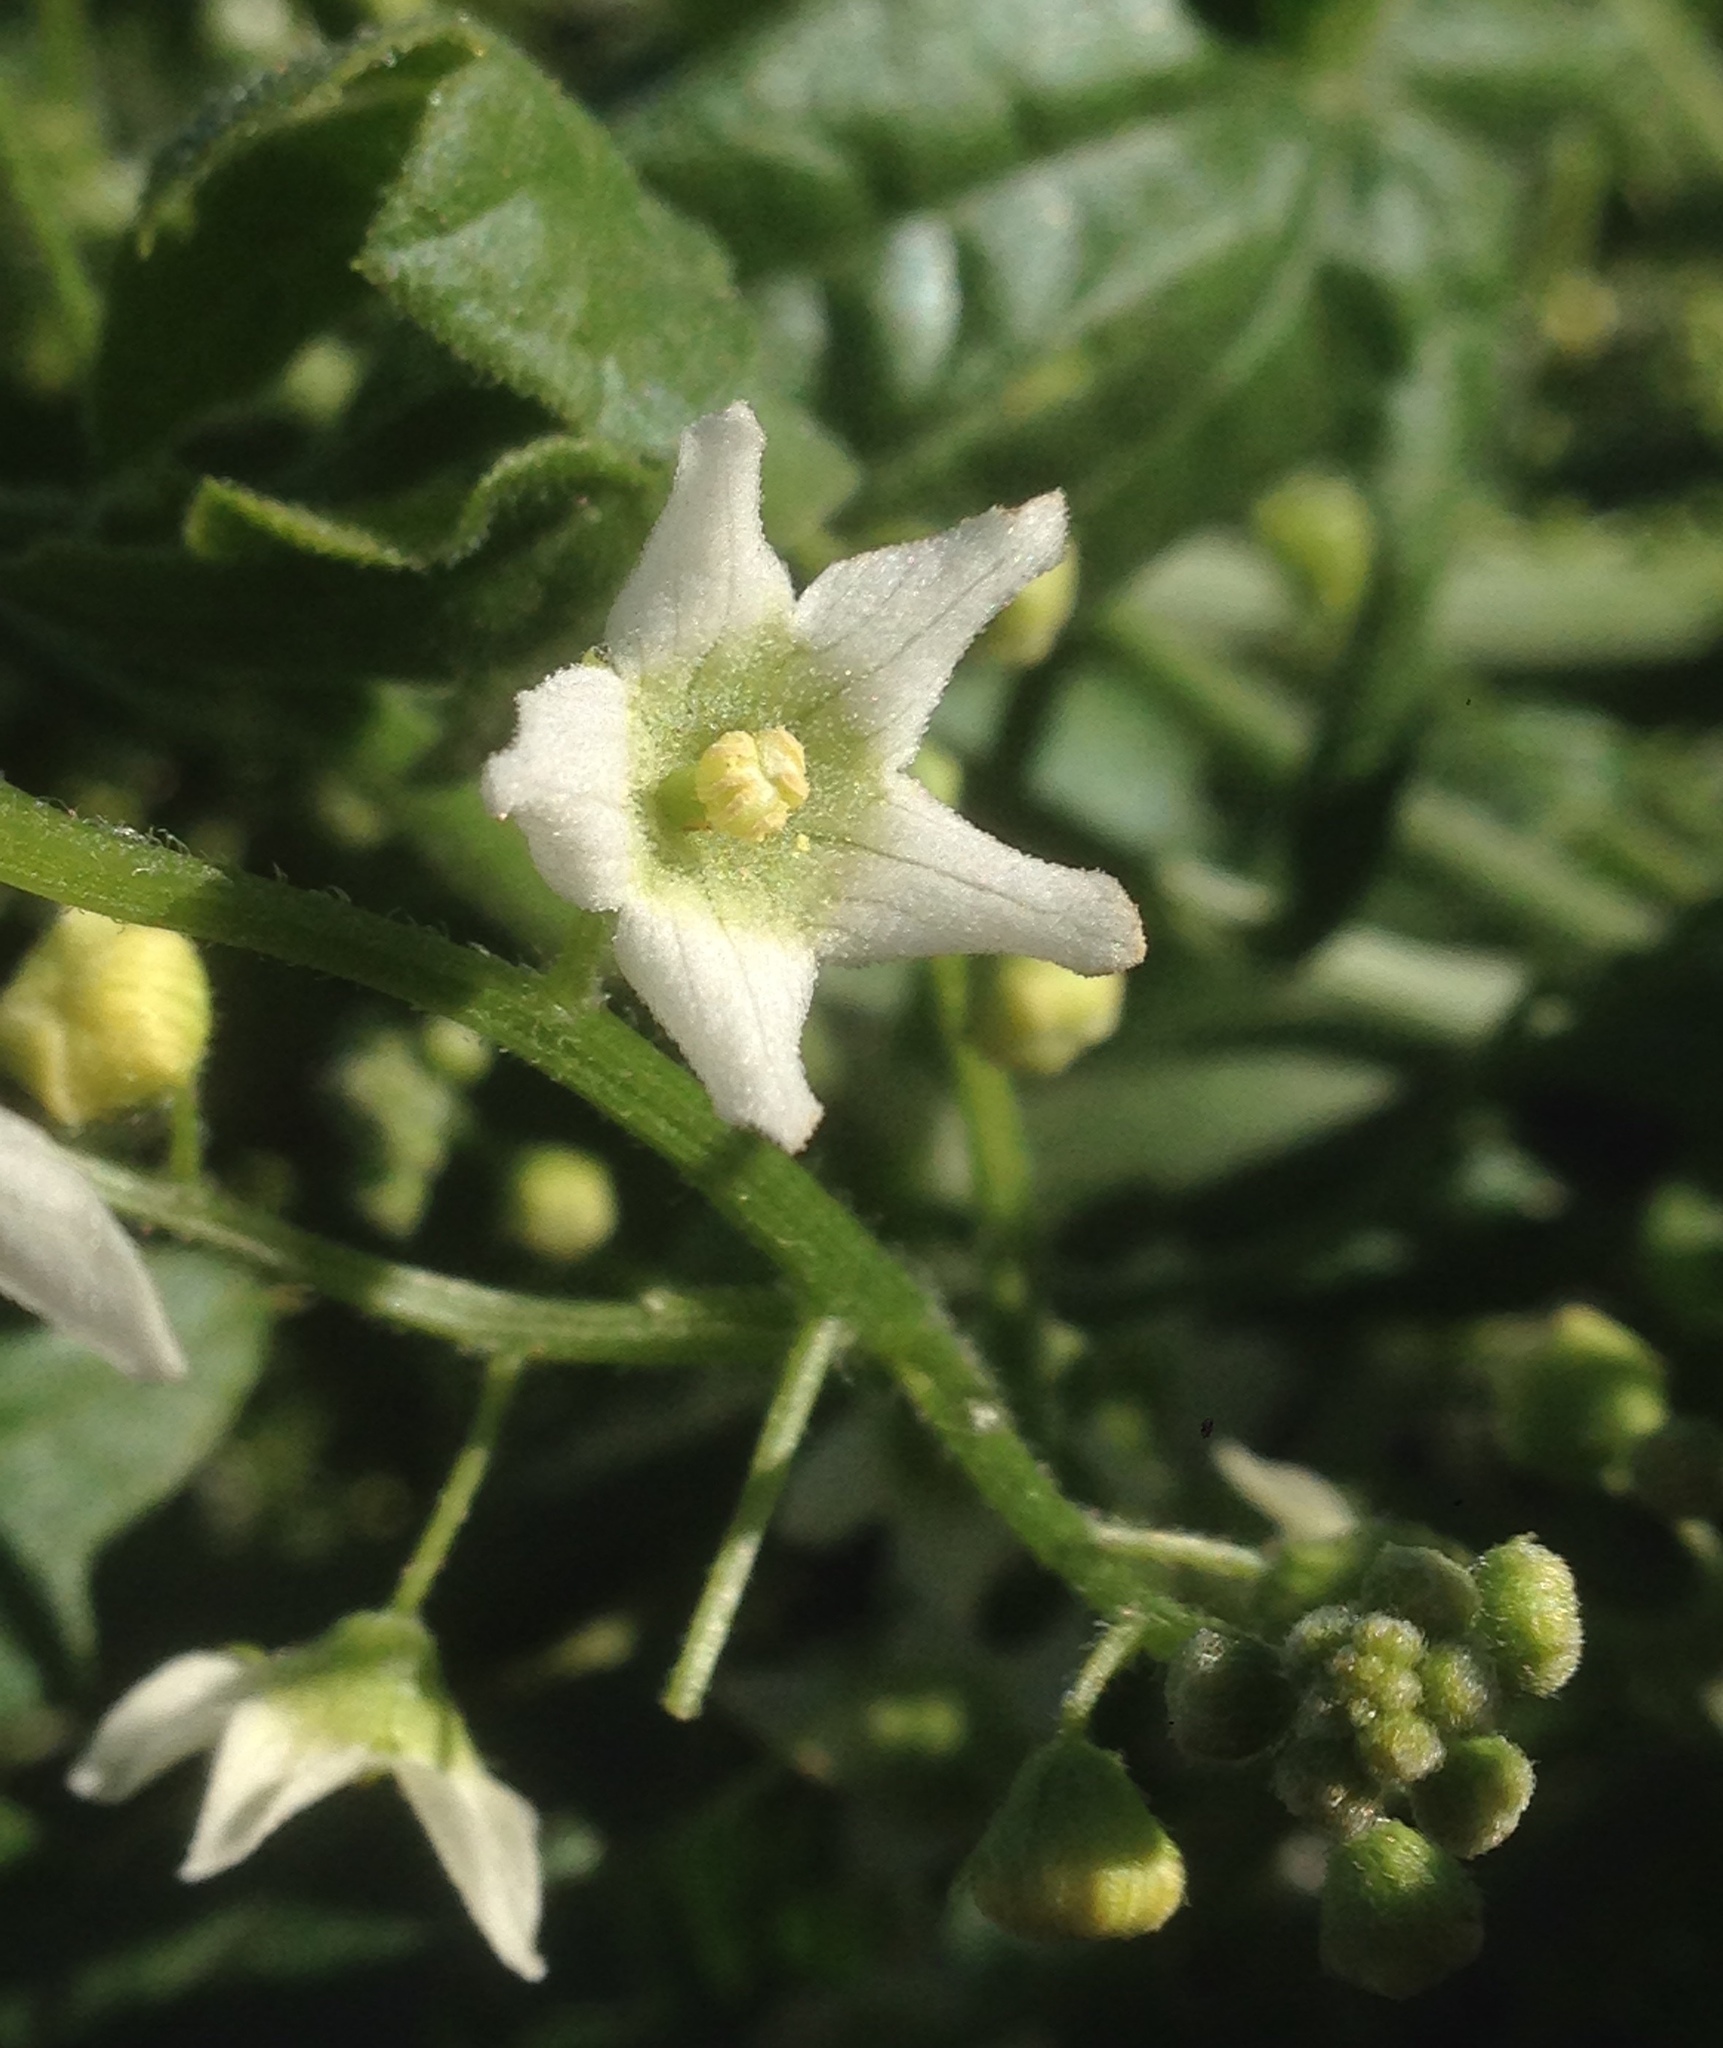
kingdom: Plantae
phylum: Tracheophyta
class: Magnoliopsida
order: Cucurbitales
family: Cucurbitaceae
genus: Marah
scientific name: Marah macrocarpa
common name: Cucamonga manroot
